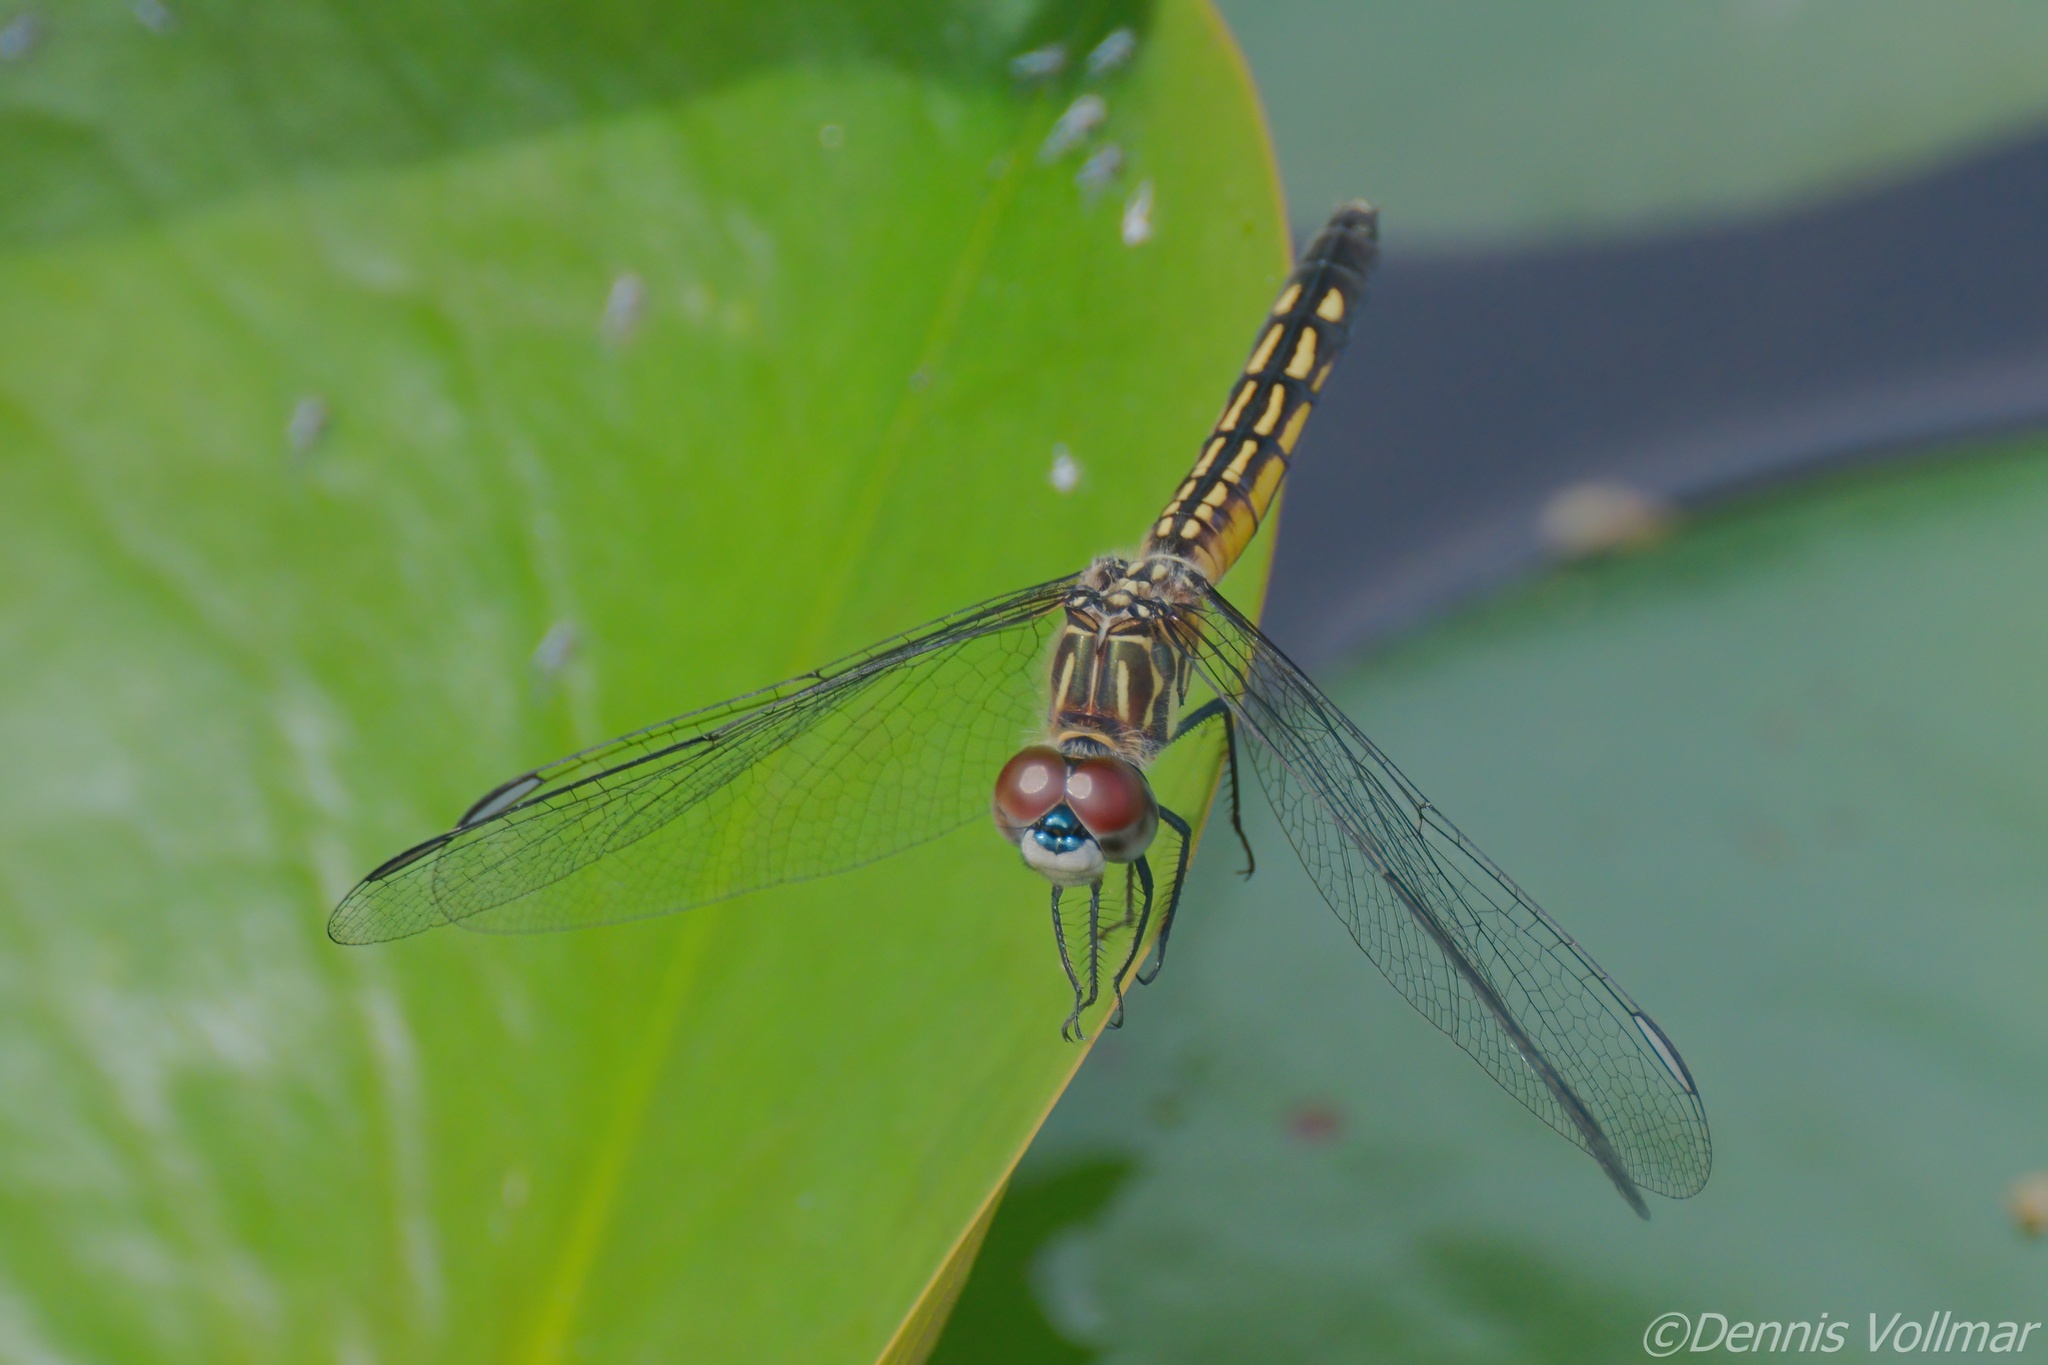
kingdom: Animalia
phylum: Arthropoda
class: Insecta
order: Odonata
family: Libellulidae
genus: Pachydiplax
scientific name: Pachydiplax longipennis
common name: Blue dasher
